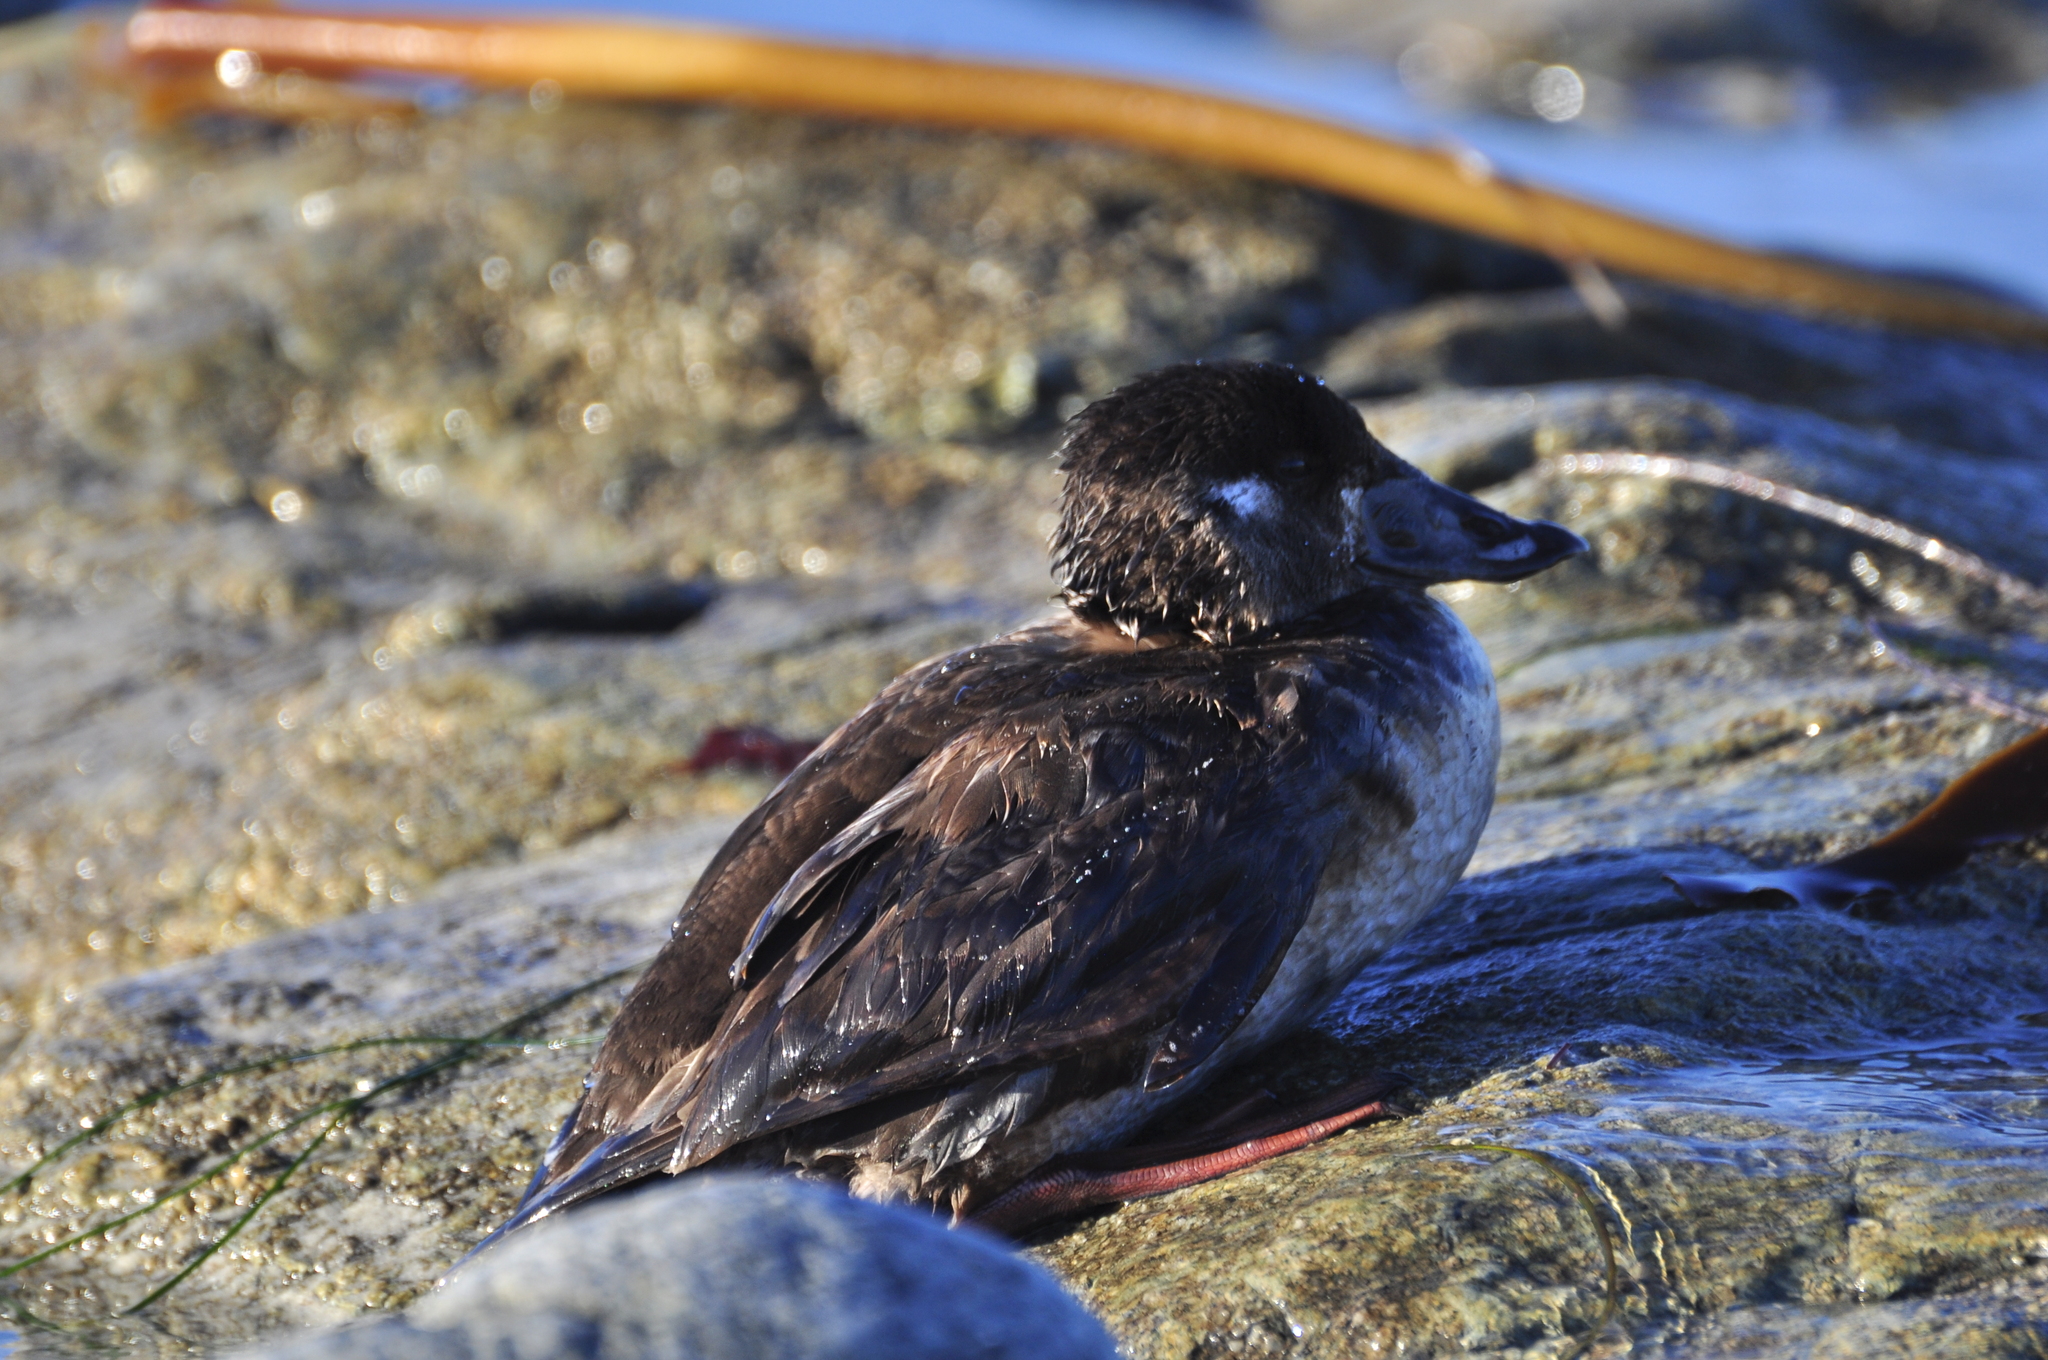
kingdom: Animalia
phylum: Chordata
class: Aves
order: Anseriformes
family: Anatidae
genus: Melanitta
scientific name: Melanitta perspicillata
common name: Surf scoter
